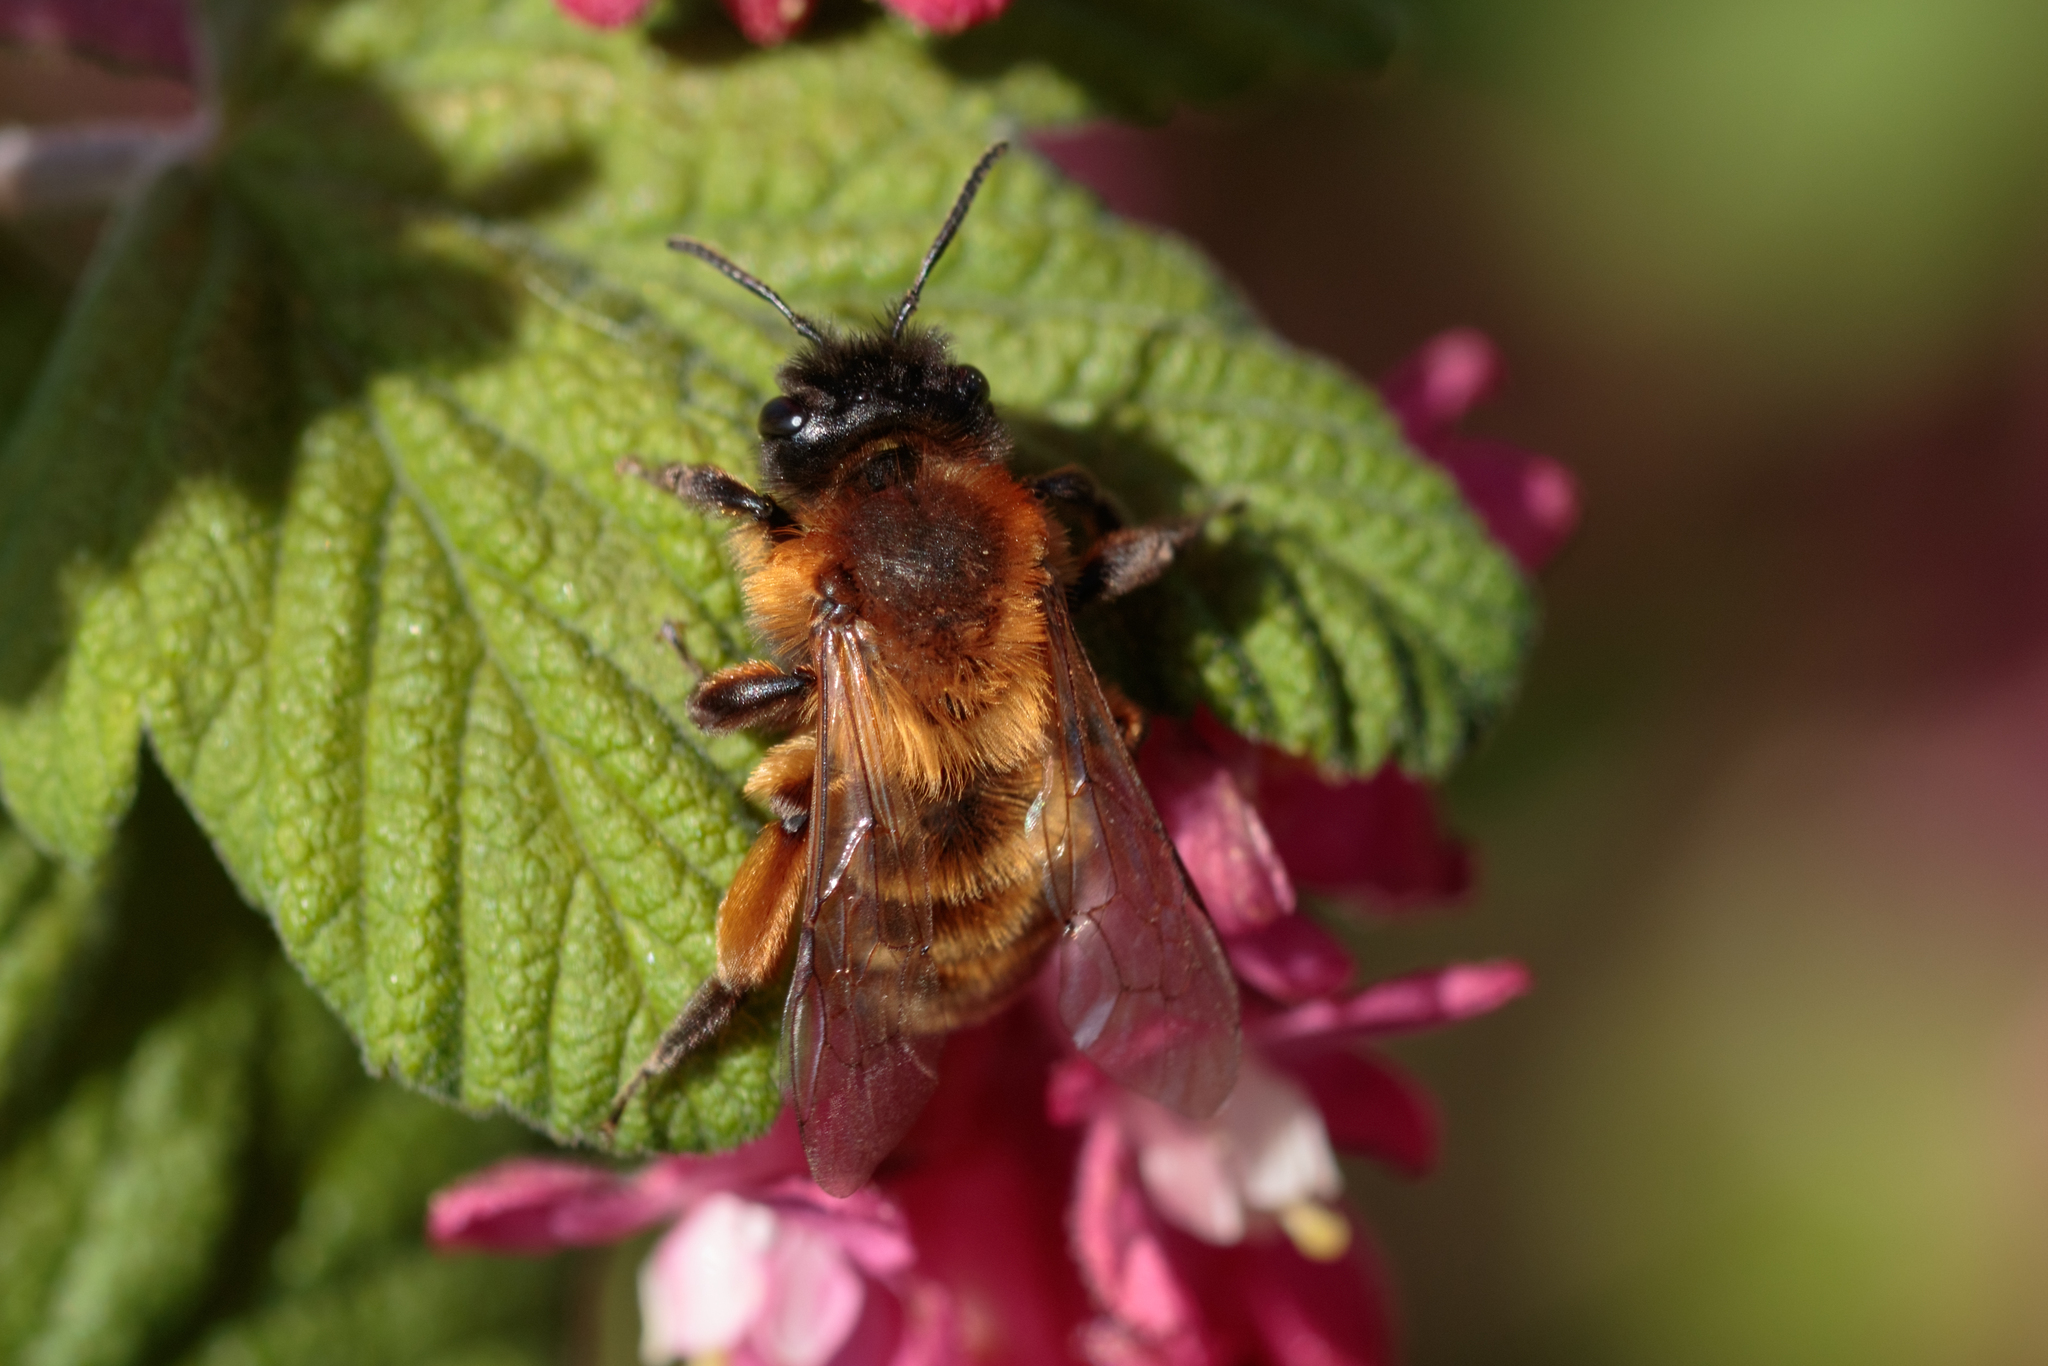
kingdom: Animalia
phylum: Arthropoda
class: Insecta
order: Hymenoptera
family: Andrenidae
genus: Andrena
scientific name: Andrena nigroaenea
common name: Buffish mining bee
